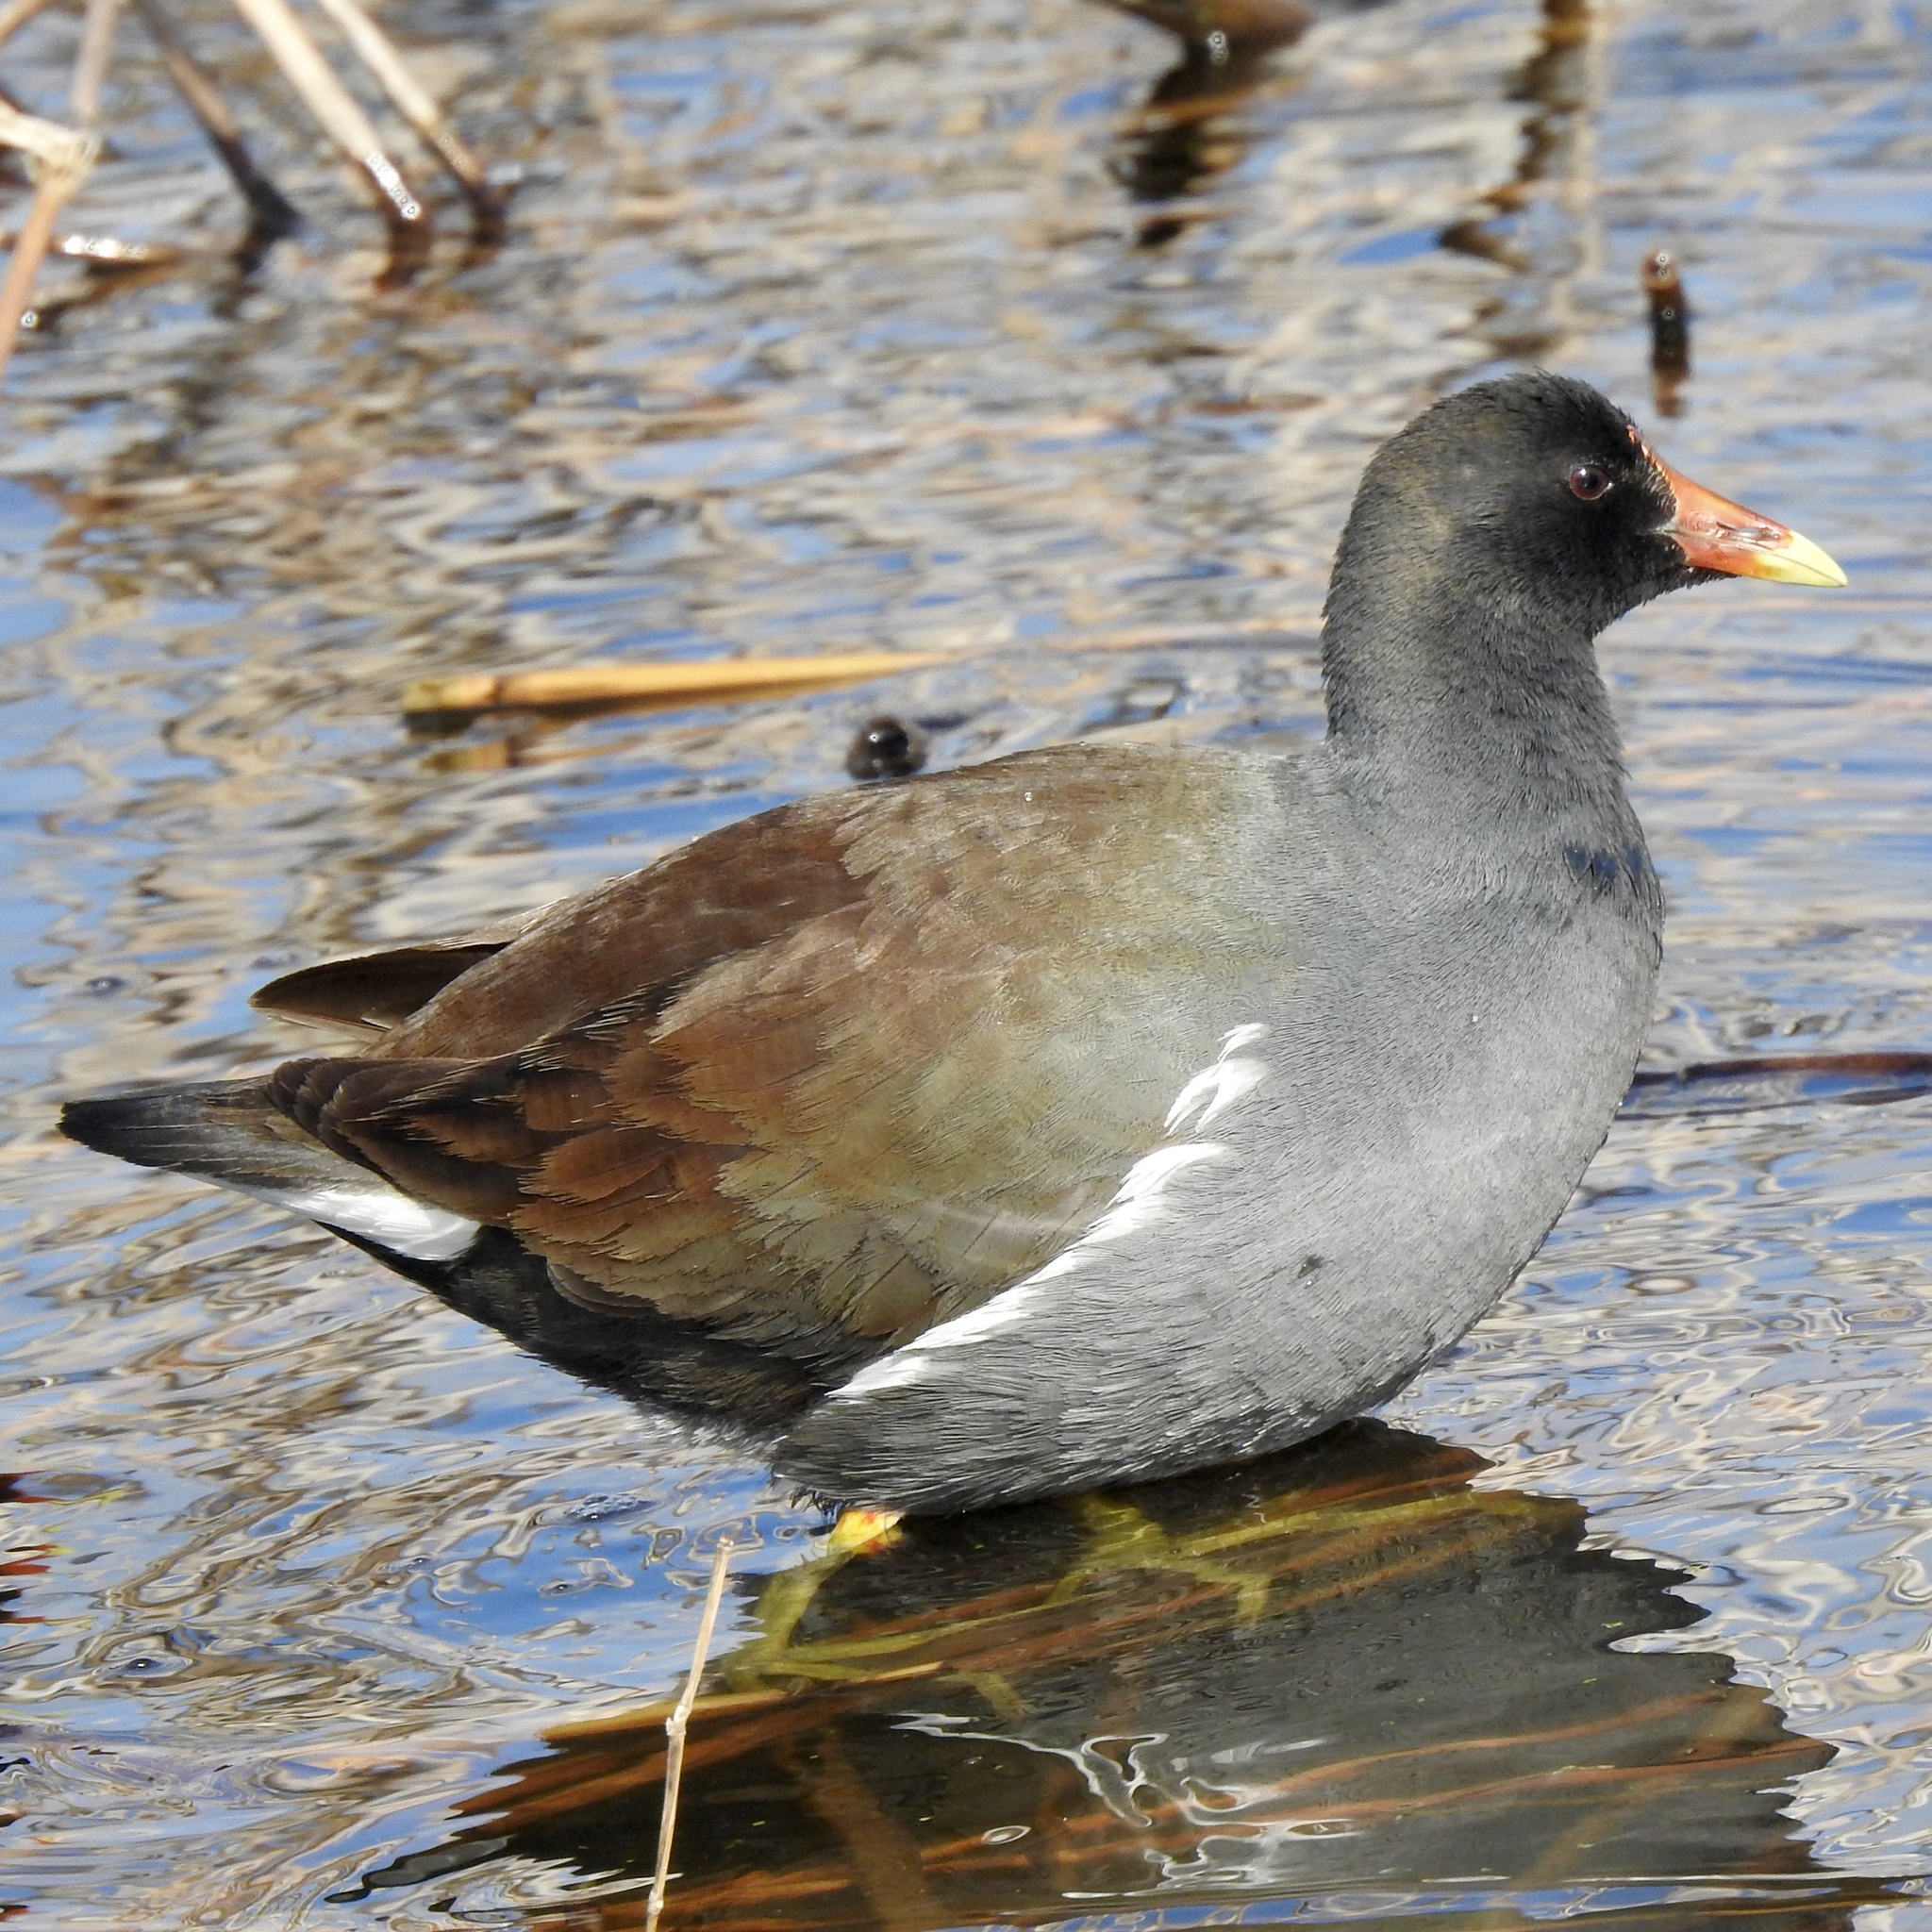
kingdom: Animalia
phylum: Chordata
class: Aves
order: Gruiformes
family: Rallidae
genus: Gallinula
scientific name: Gallinula chloropus
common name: Common moorhen
